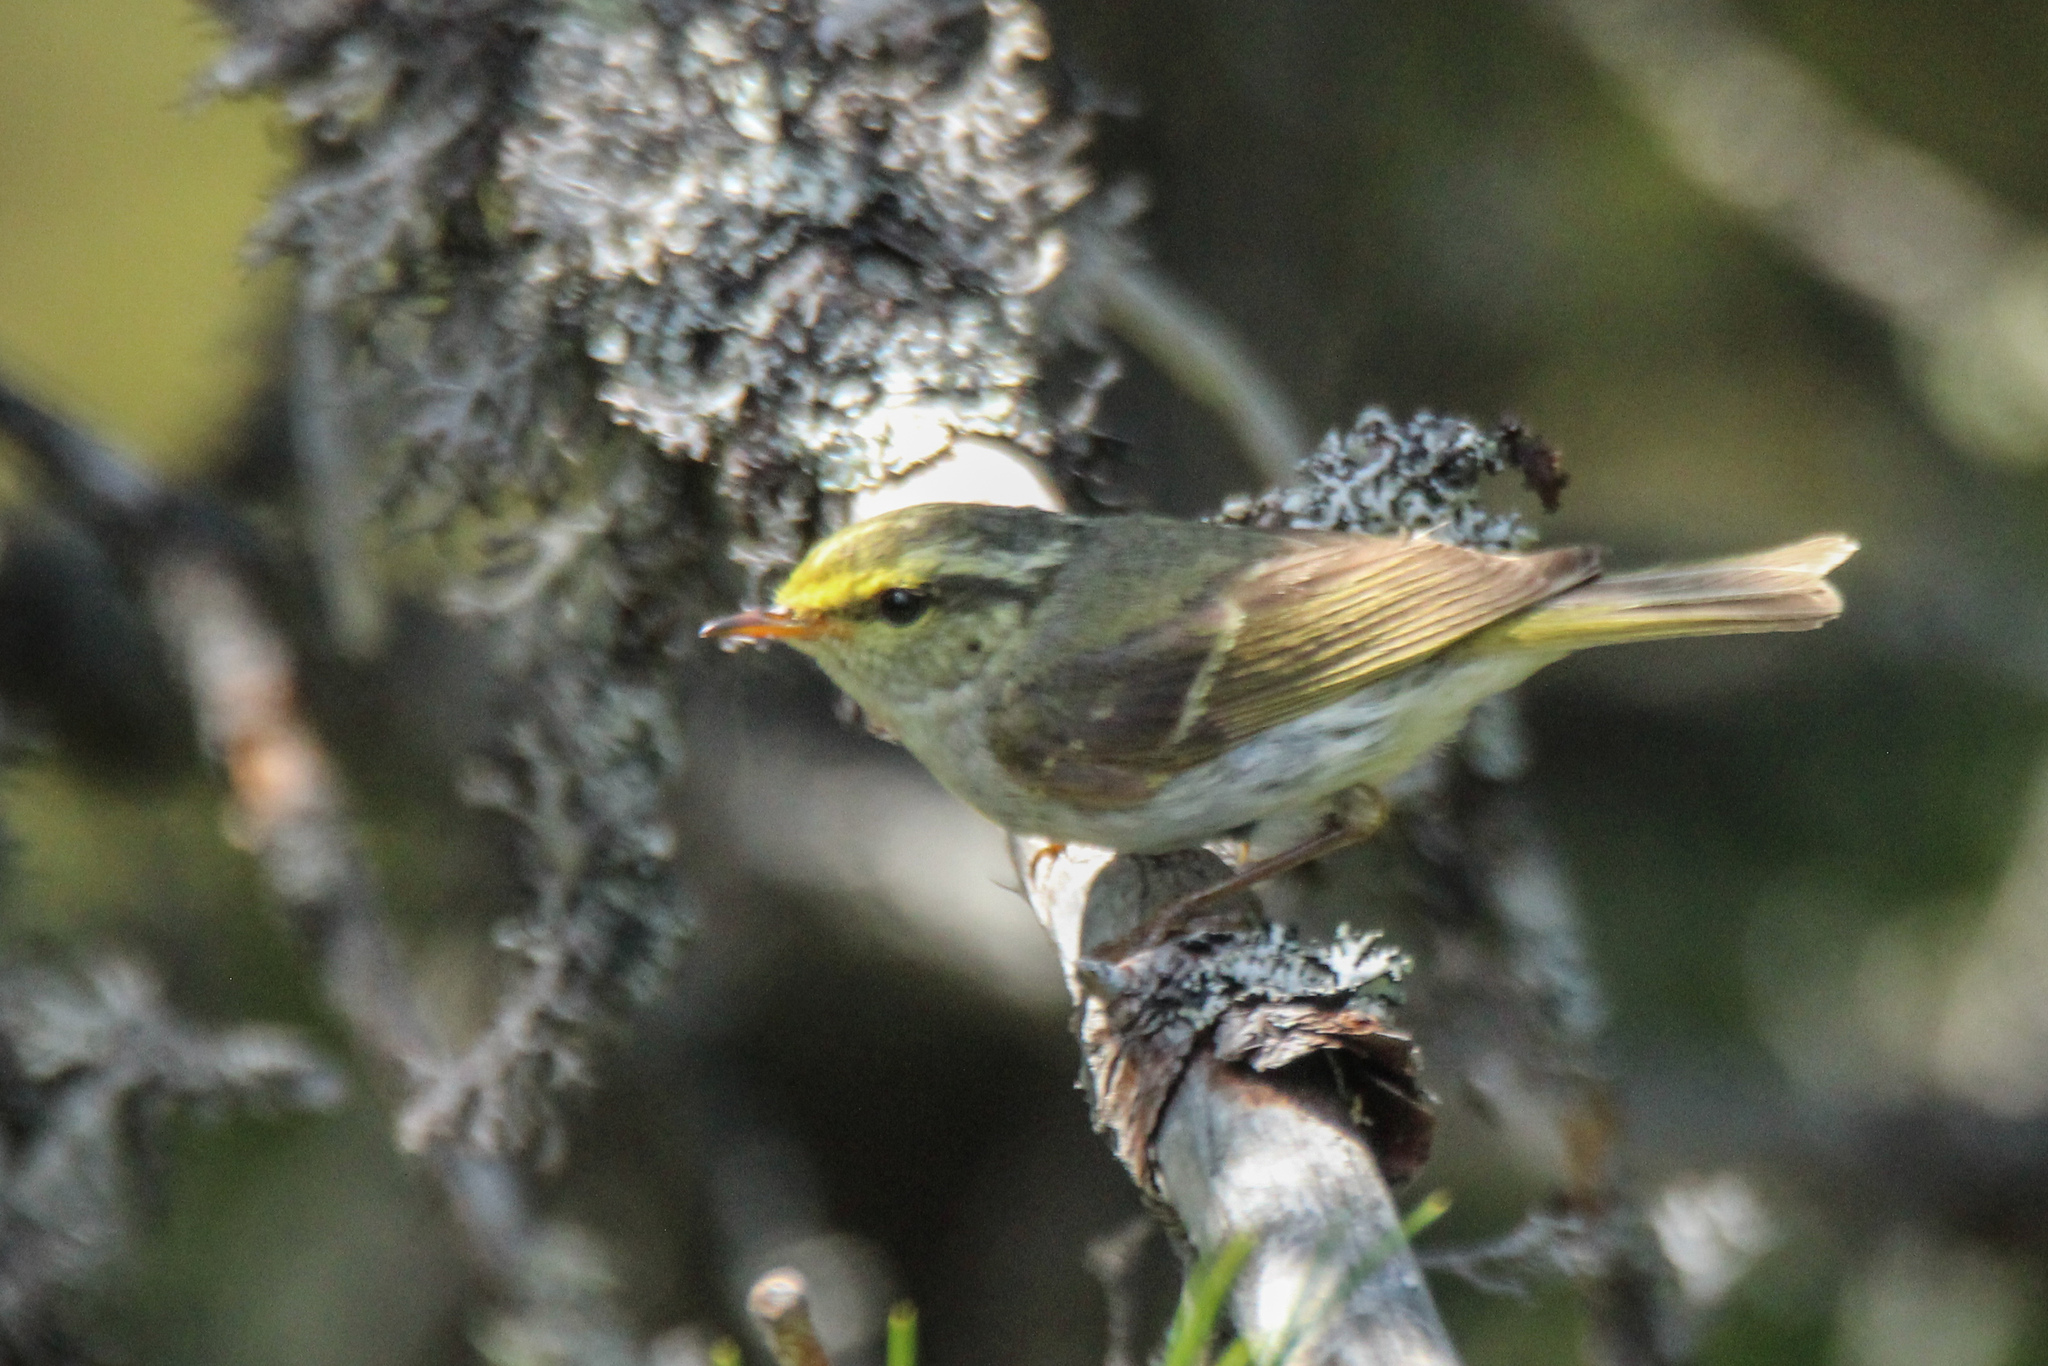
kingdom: Animalia
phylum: Chordata
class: Aves
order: Passeriformes
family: Phylloscopidae
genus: Phylloscopus
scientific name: Phylloscopus proregulus
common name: Pallas's leaf warbler
